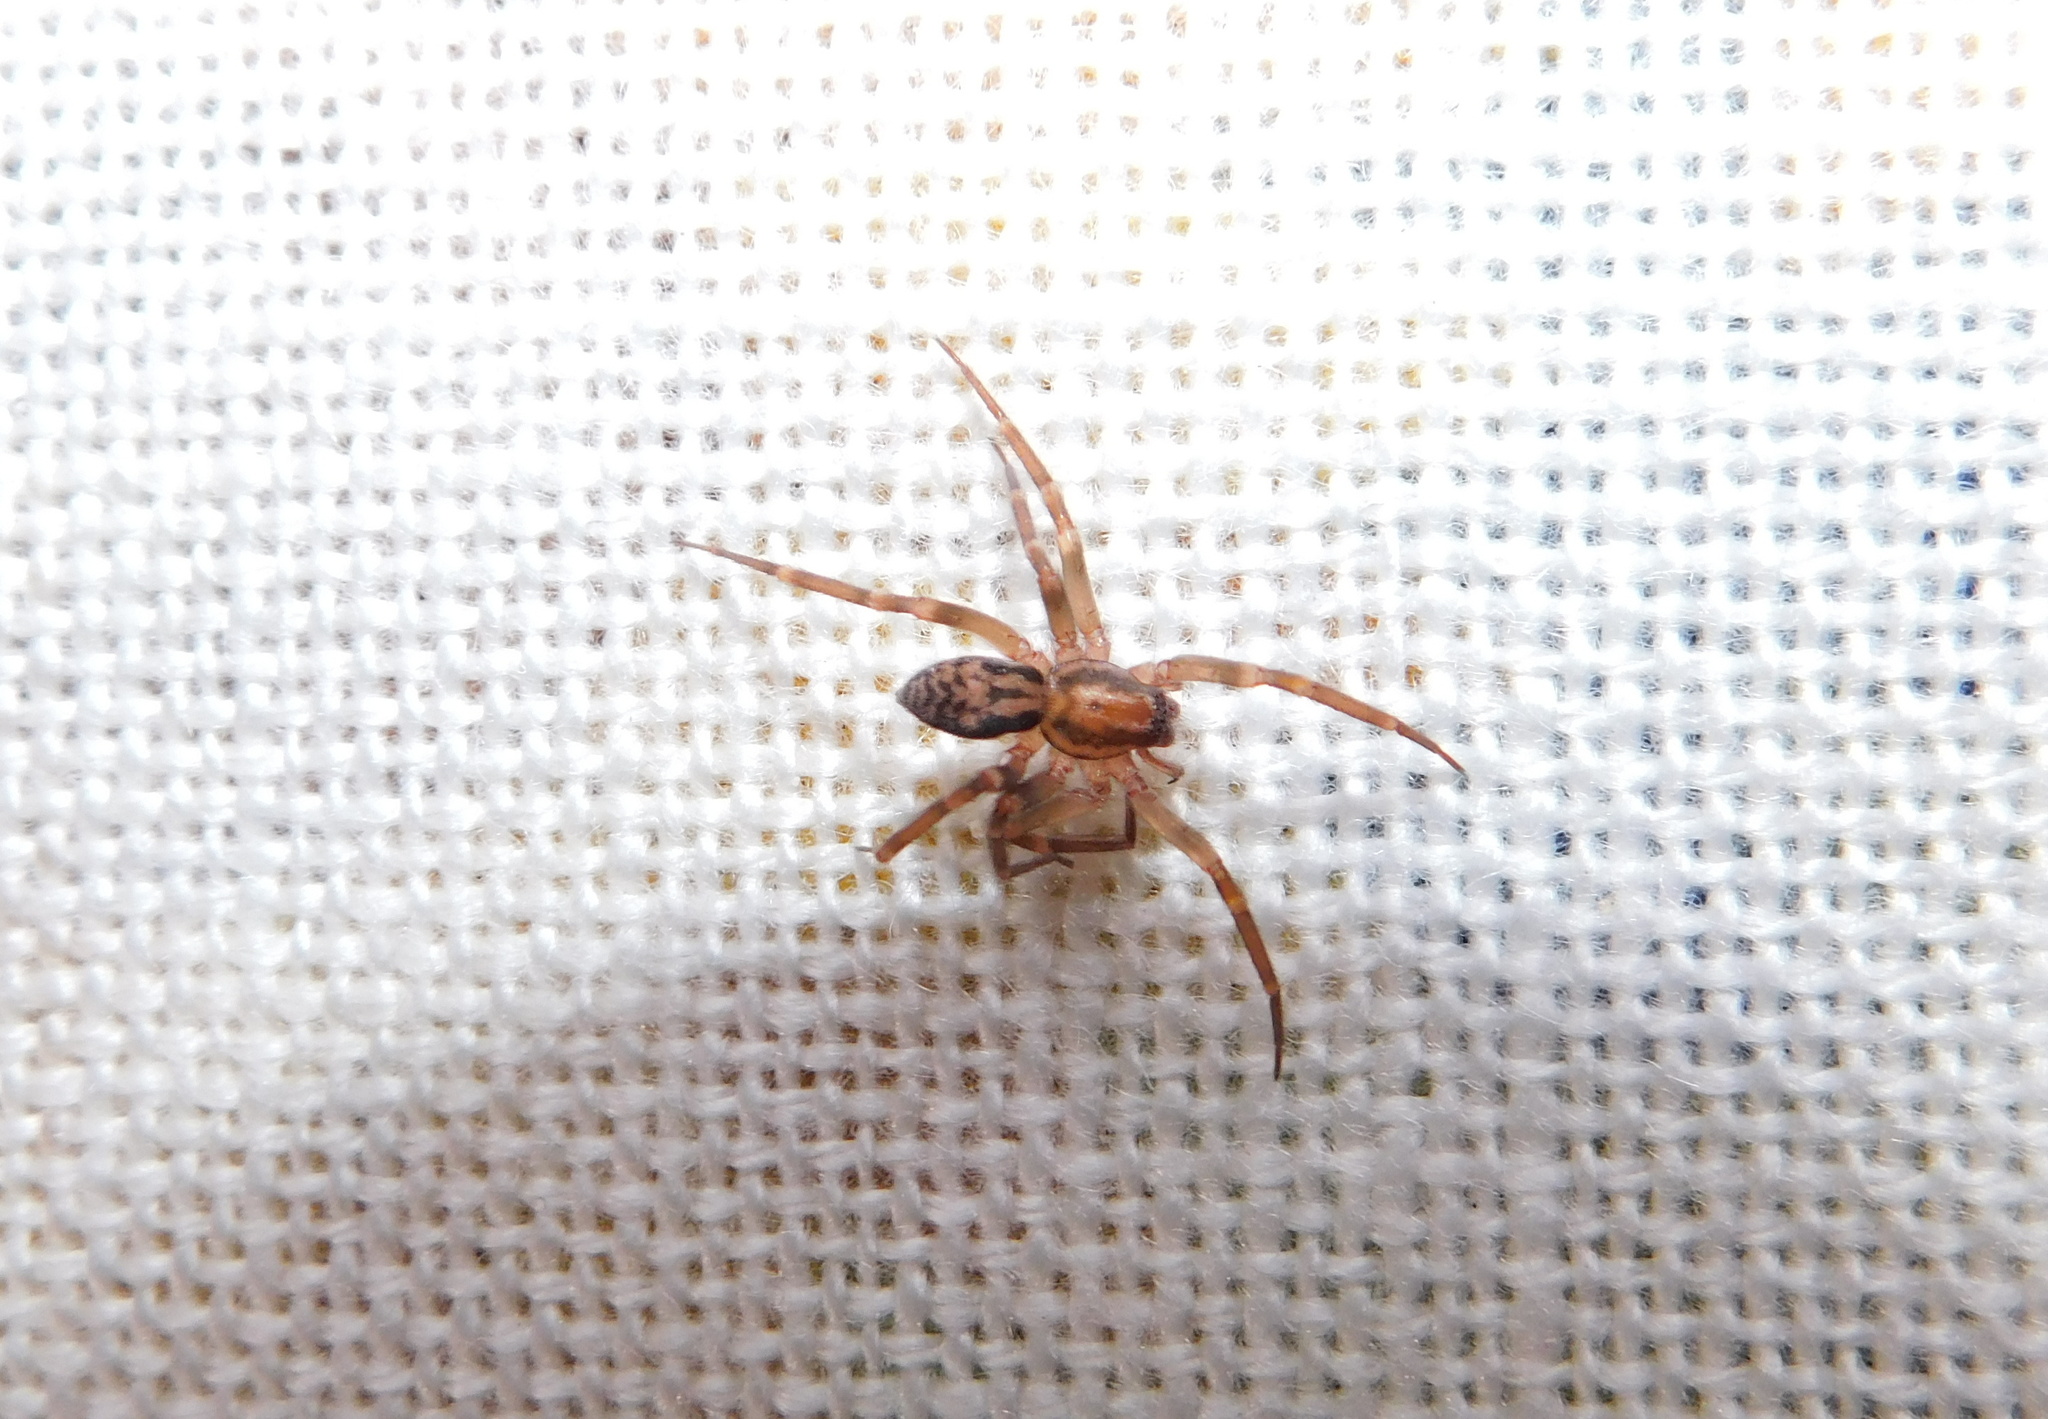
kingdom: Animalia
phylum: Arthropoda
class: Arachnida
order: Araneae
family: Liocranidae
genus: Liocranum
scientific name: Liocranum rupicola
